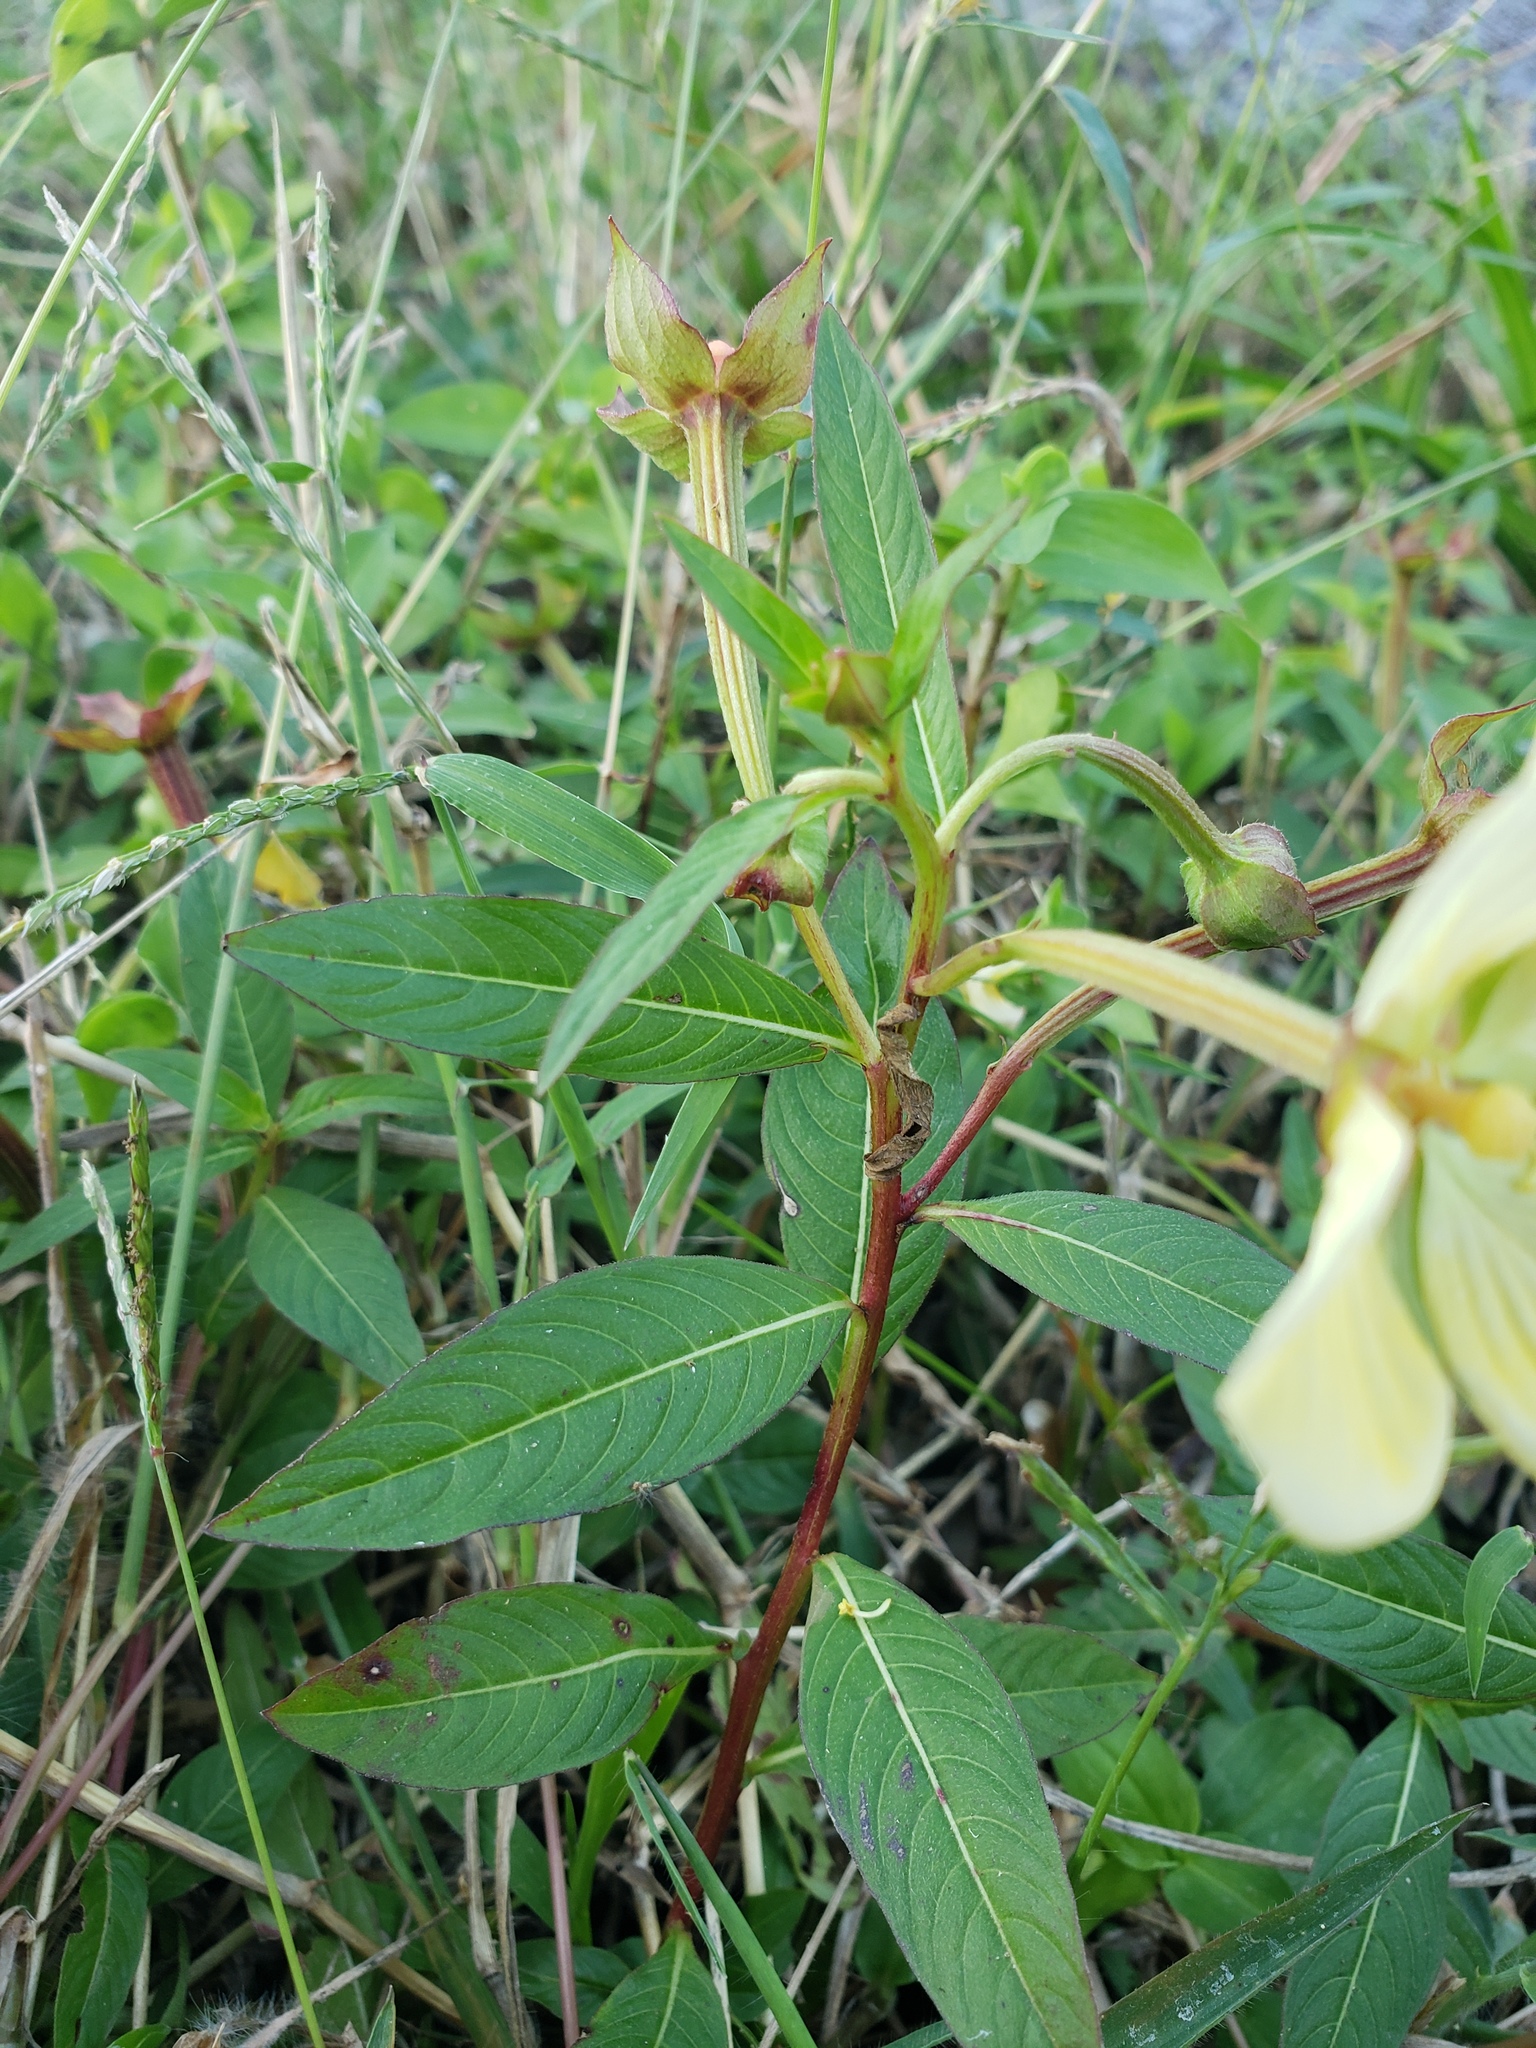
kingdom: Plantae
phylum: Tracheophyta
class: Magnoliopsida
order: Myrtales
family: Onagraceae
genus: Ludwigia
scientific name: Ludwigia octovalvis
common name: Water-primrose
